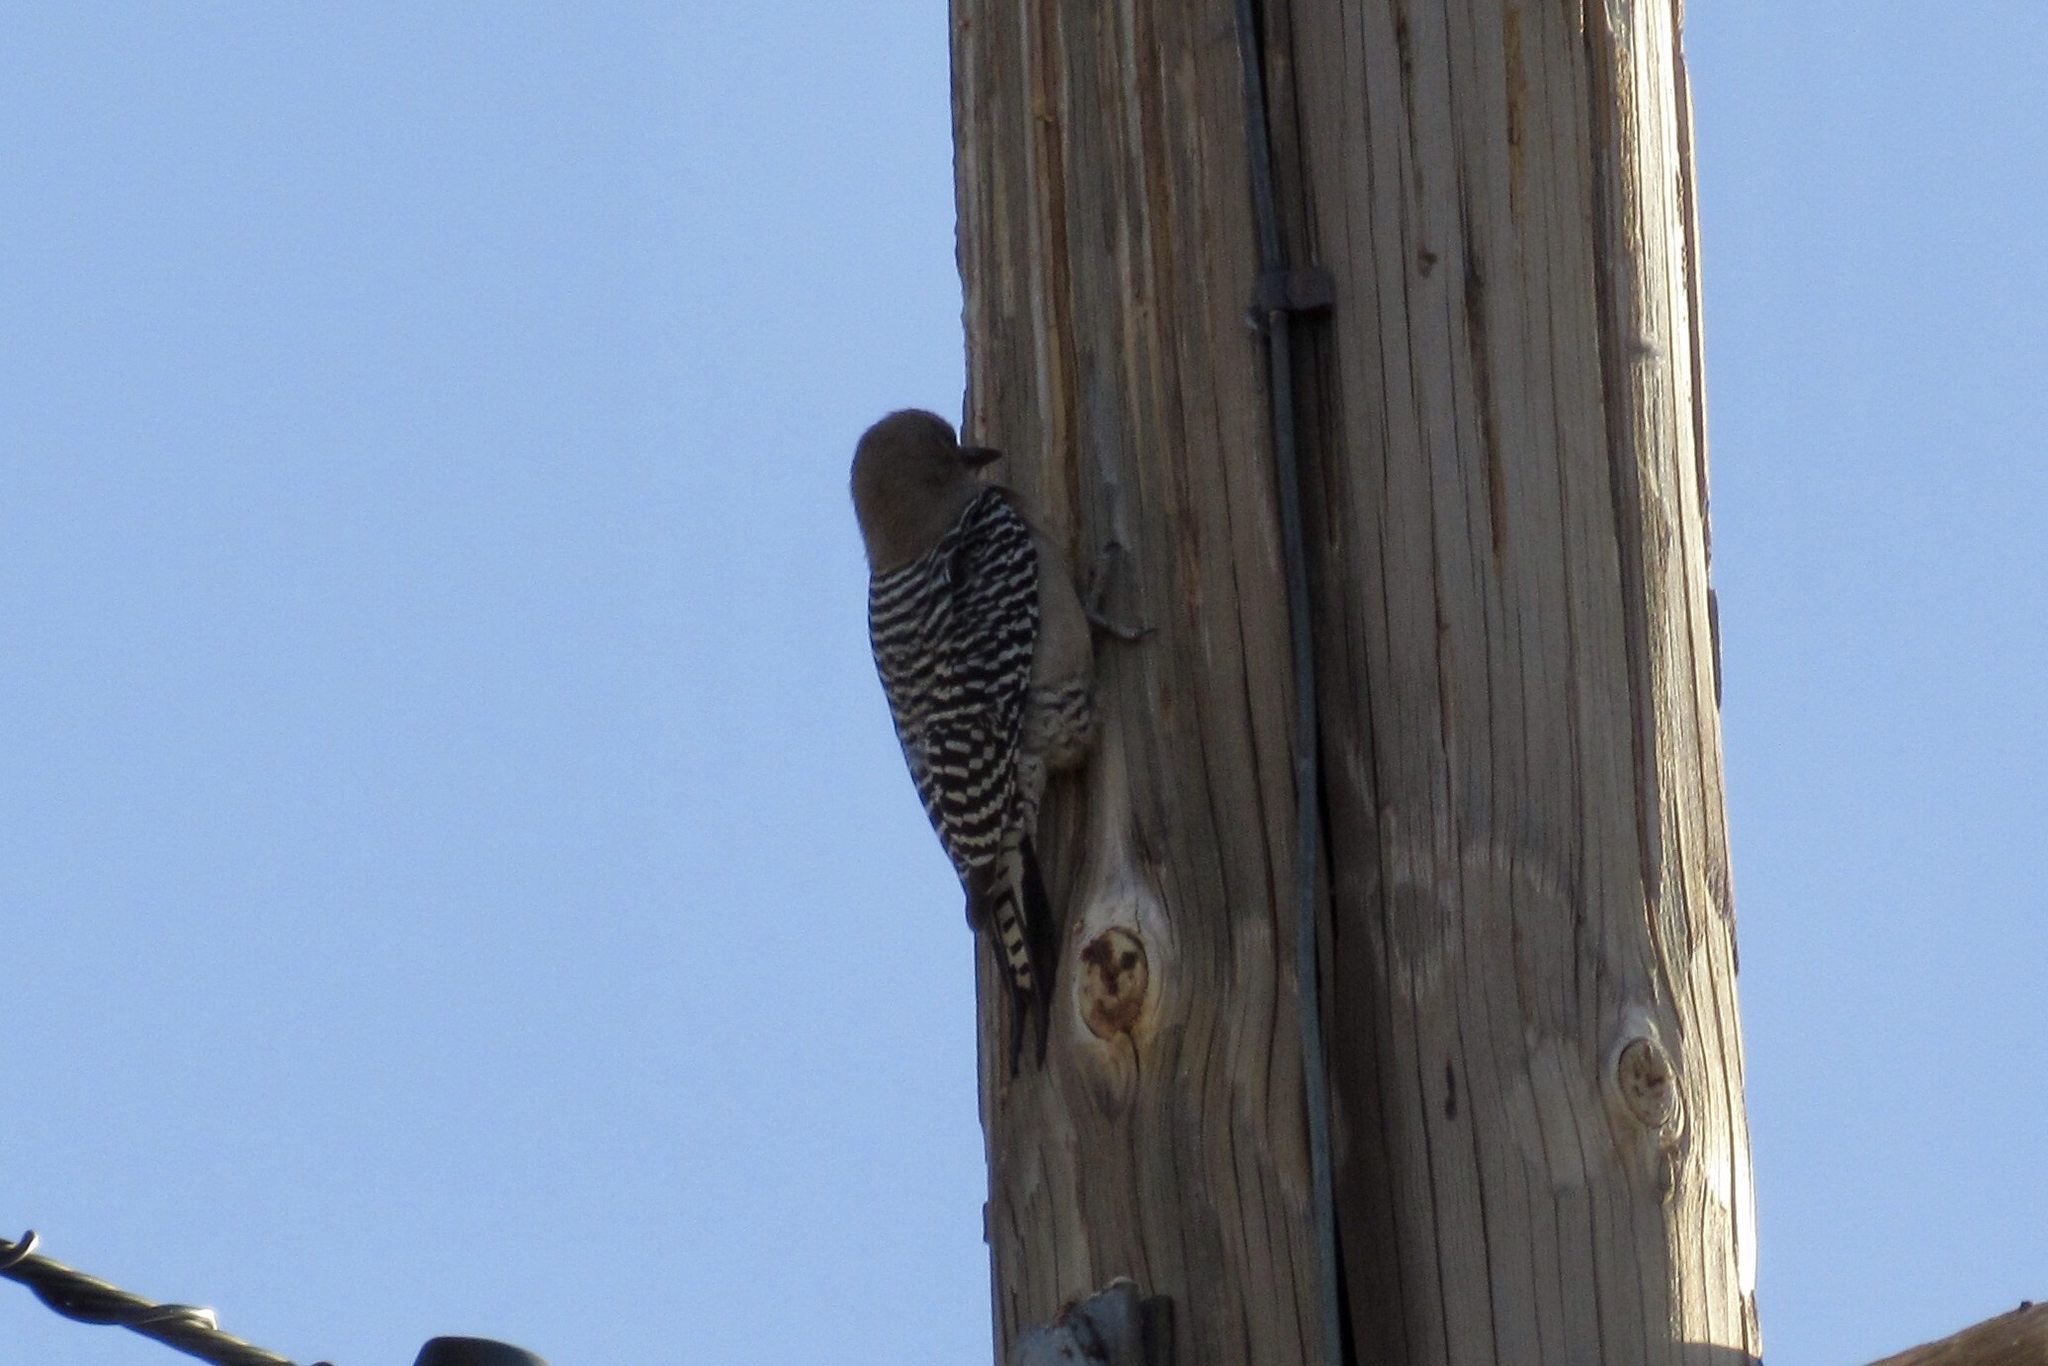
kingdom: Animalia
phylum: Chordata
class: Aves
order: Piciformes
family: Picidae
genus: Melanerpes
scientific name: Melanerpes uropygialis
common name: Gila woodpecker
